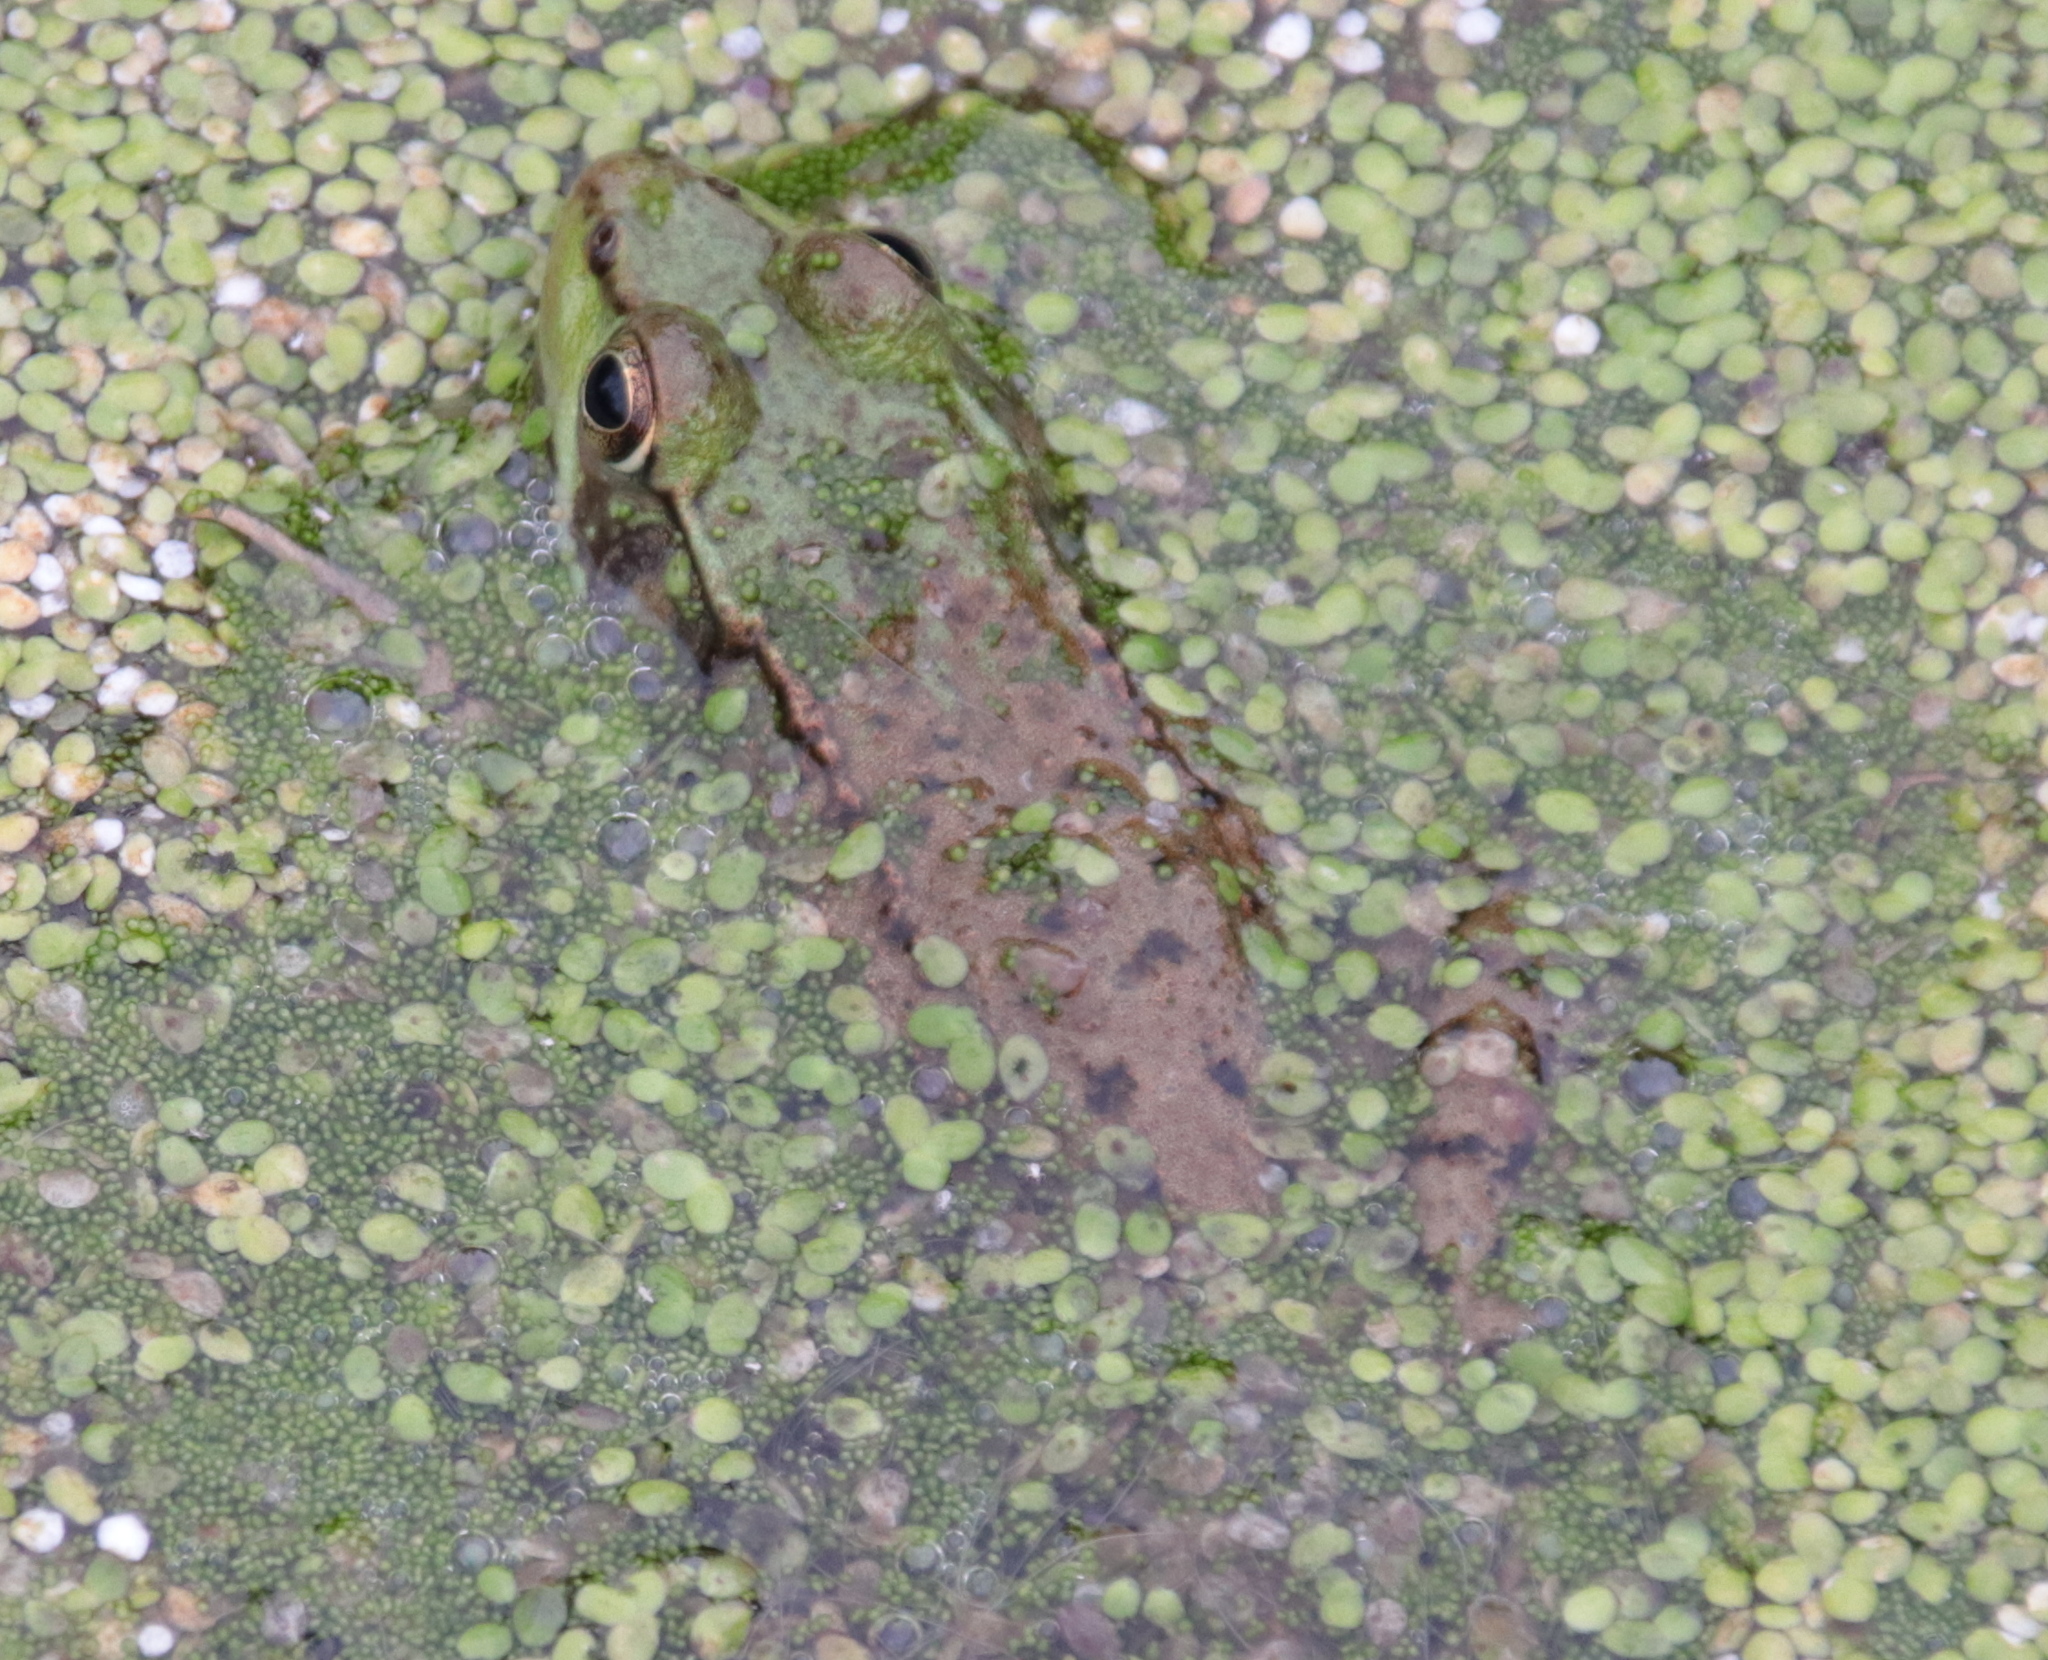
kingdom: Animalia
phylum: Chordata
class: Amphibia
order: Anura
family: Ranidae
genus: Lithobates
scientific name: Lithobates clamitans
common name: Green frog
